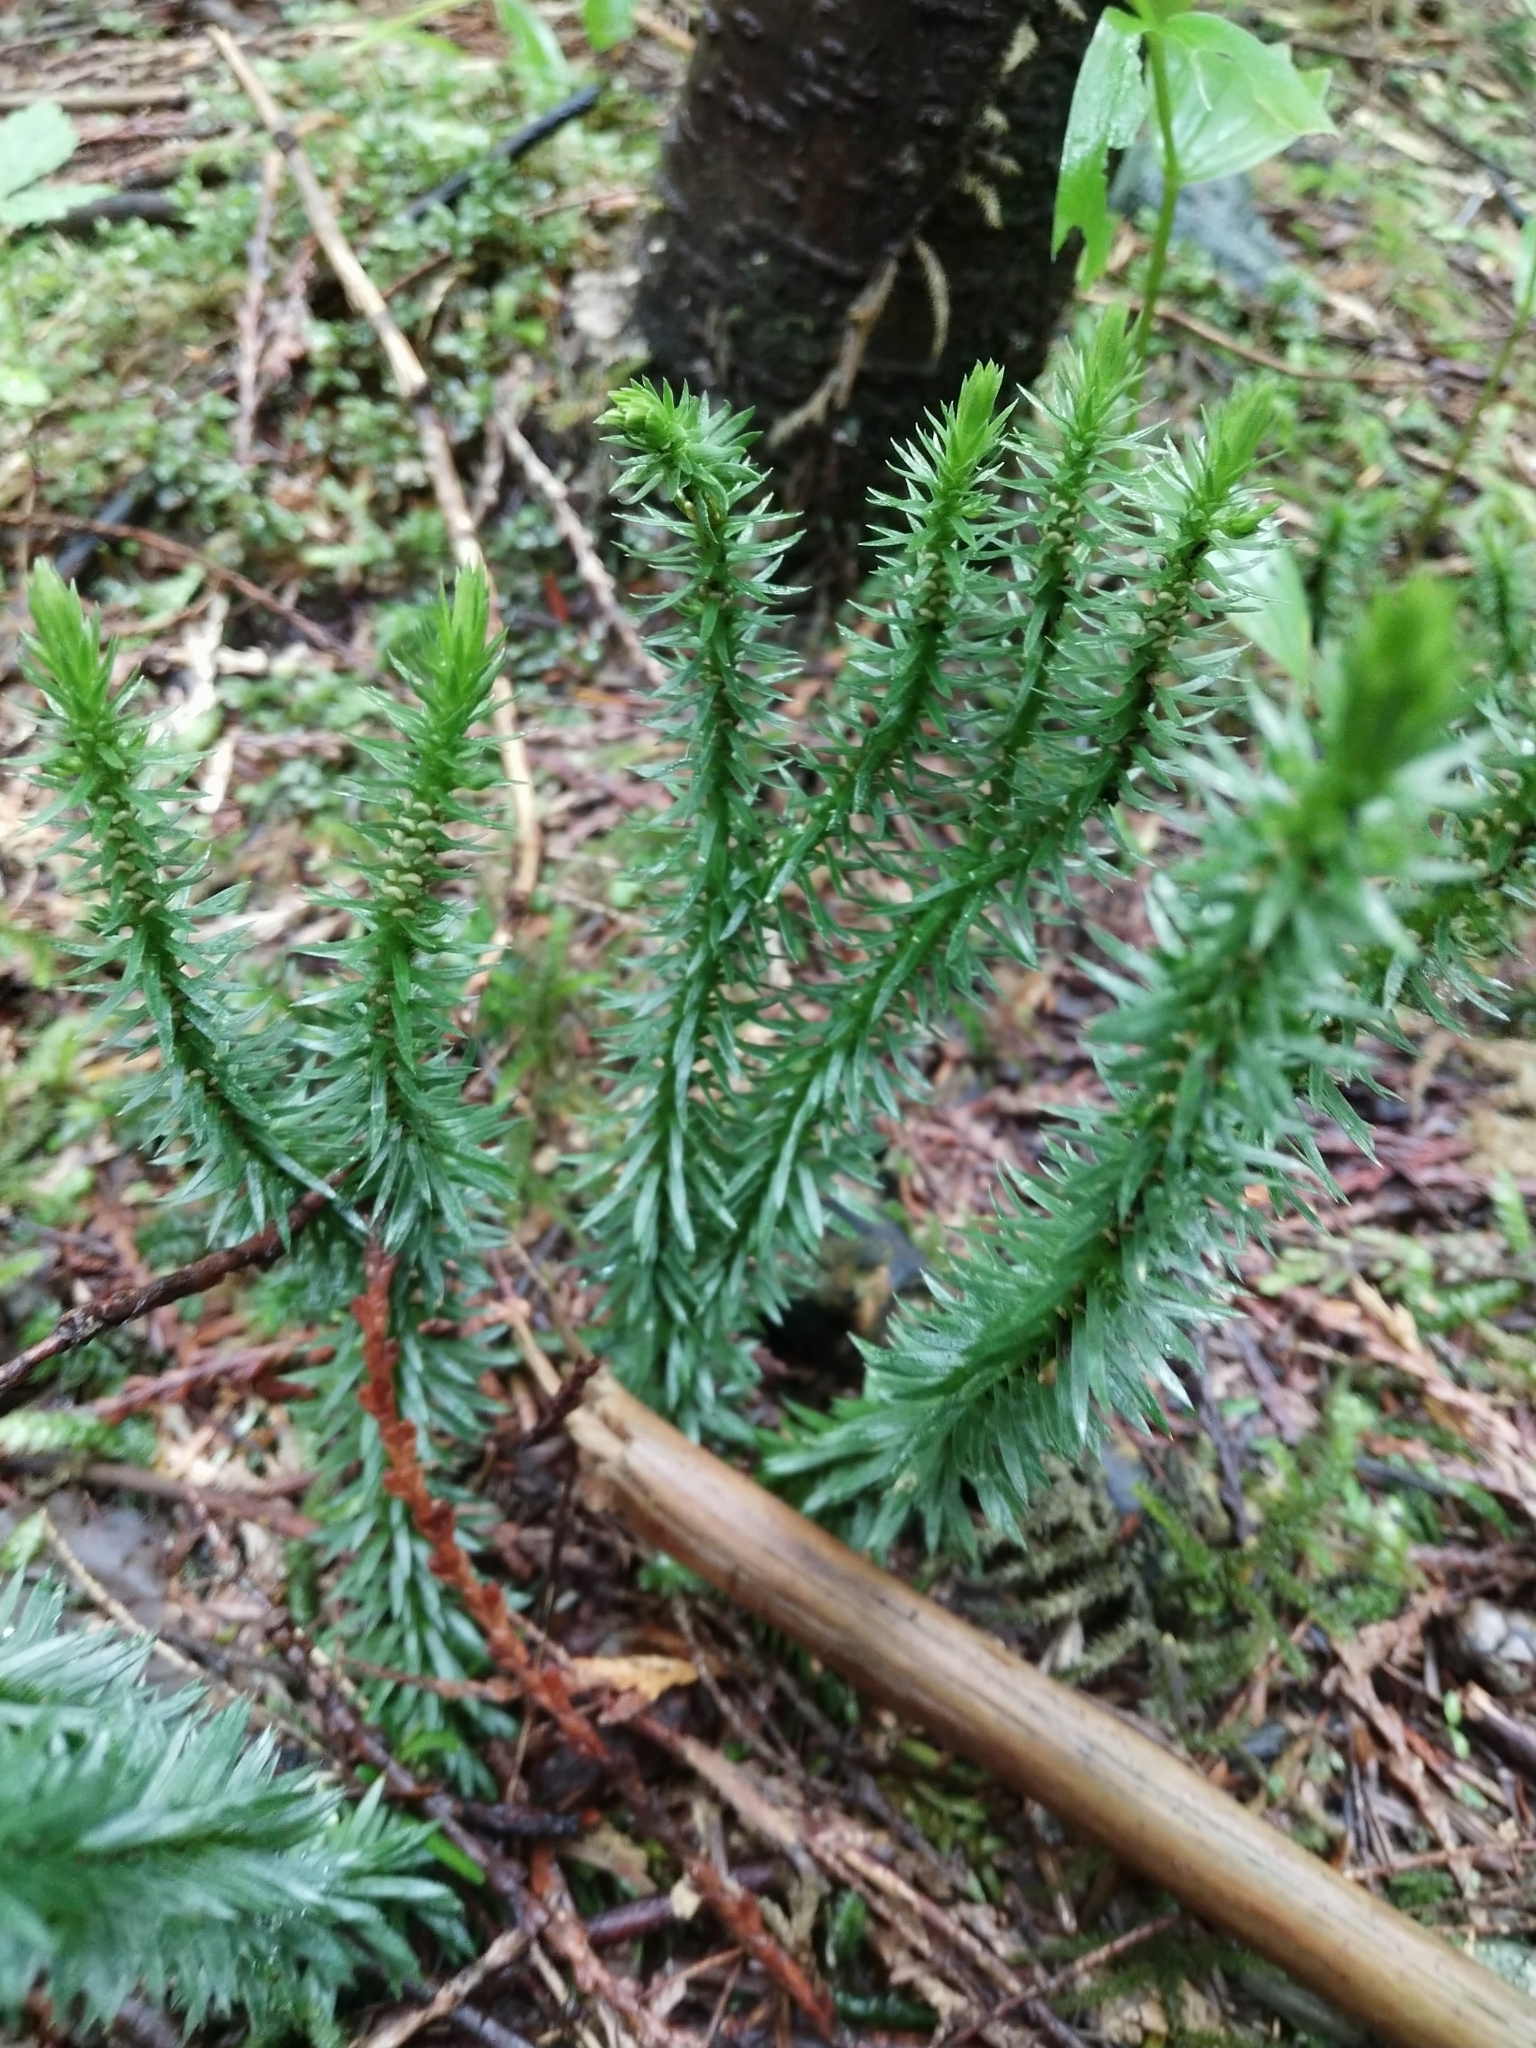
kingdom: Plantae
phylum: Tracheophyta
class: Lycopodiopsida
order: Lycopodiales
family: Lycopodiaceae
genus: Huperzia
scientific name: Huperzia occidentalis
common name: Western clubmoss
